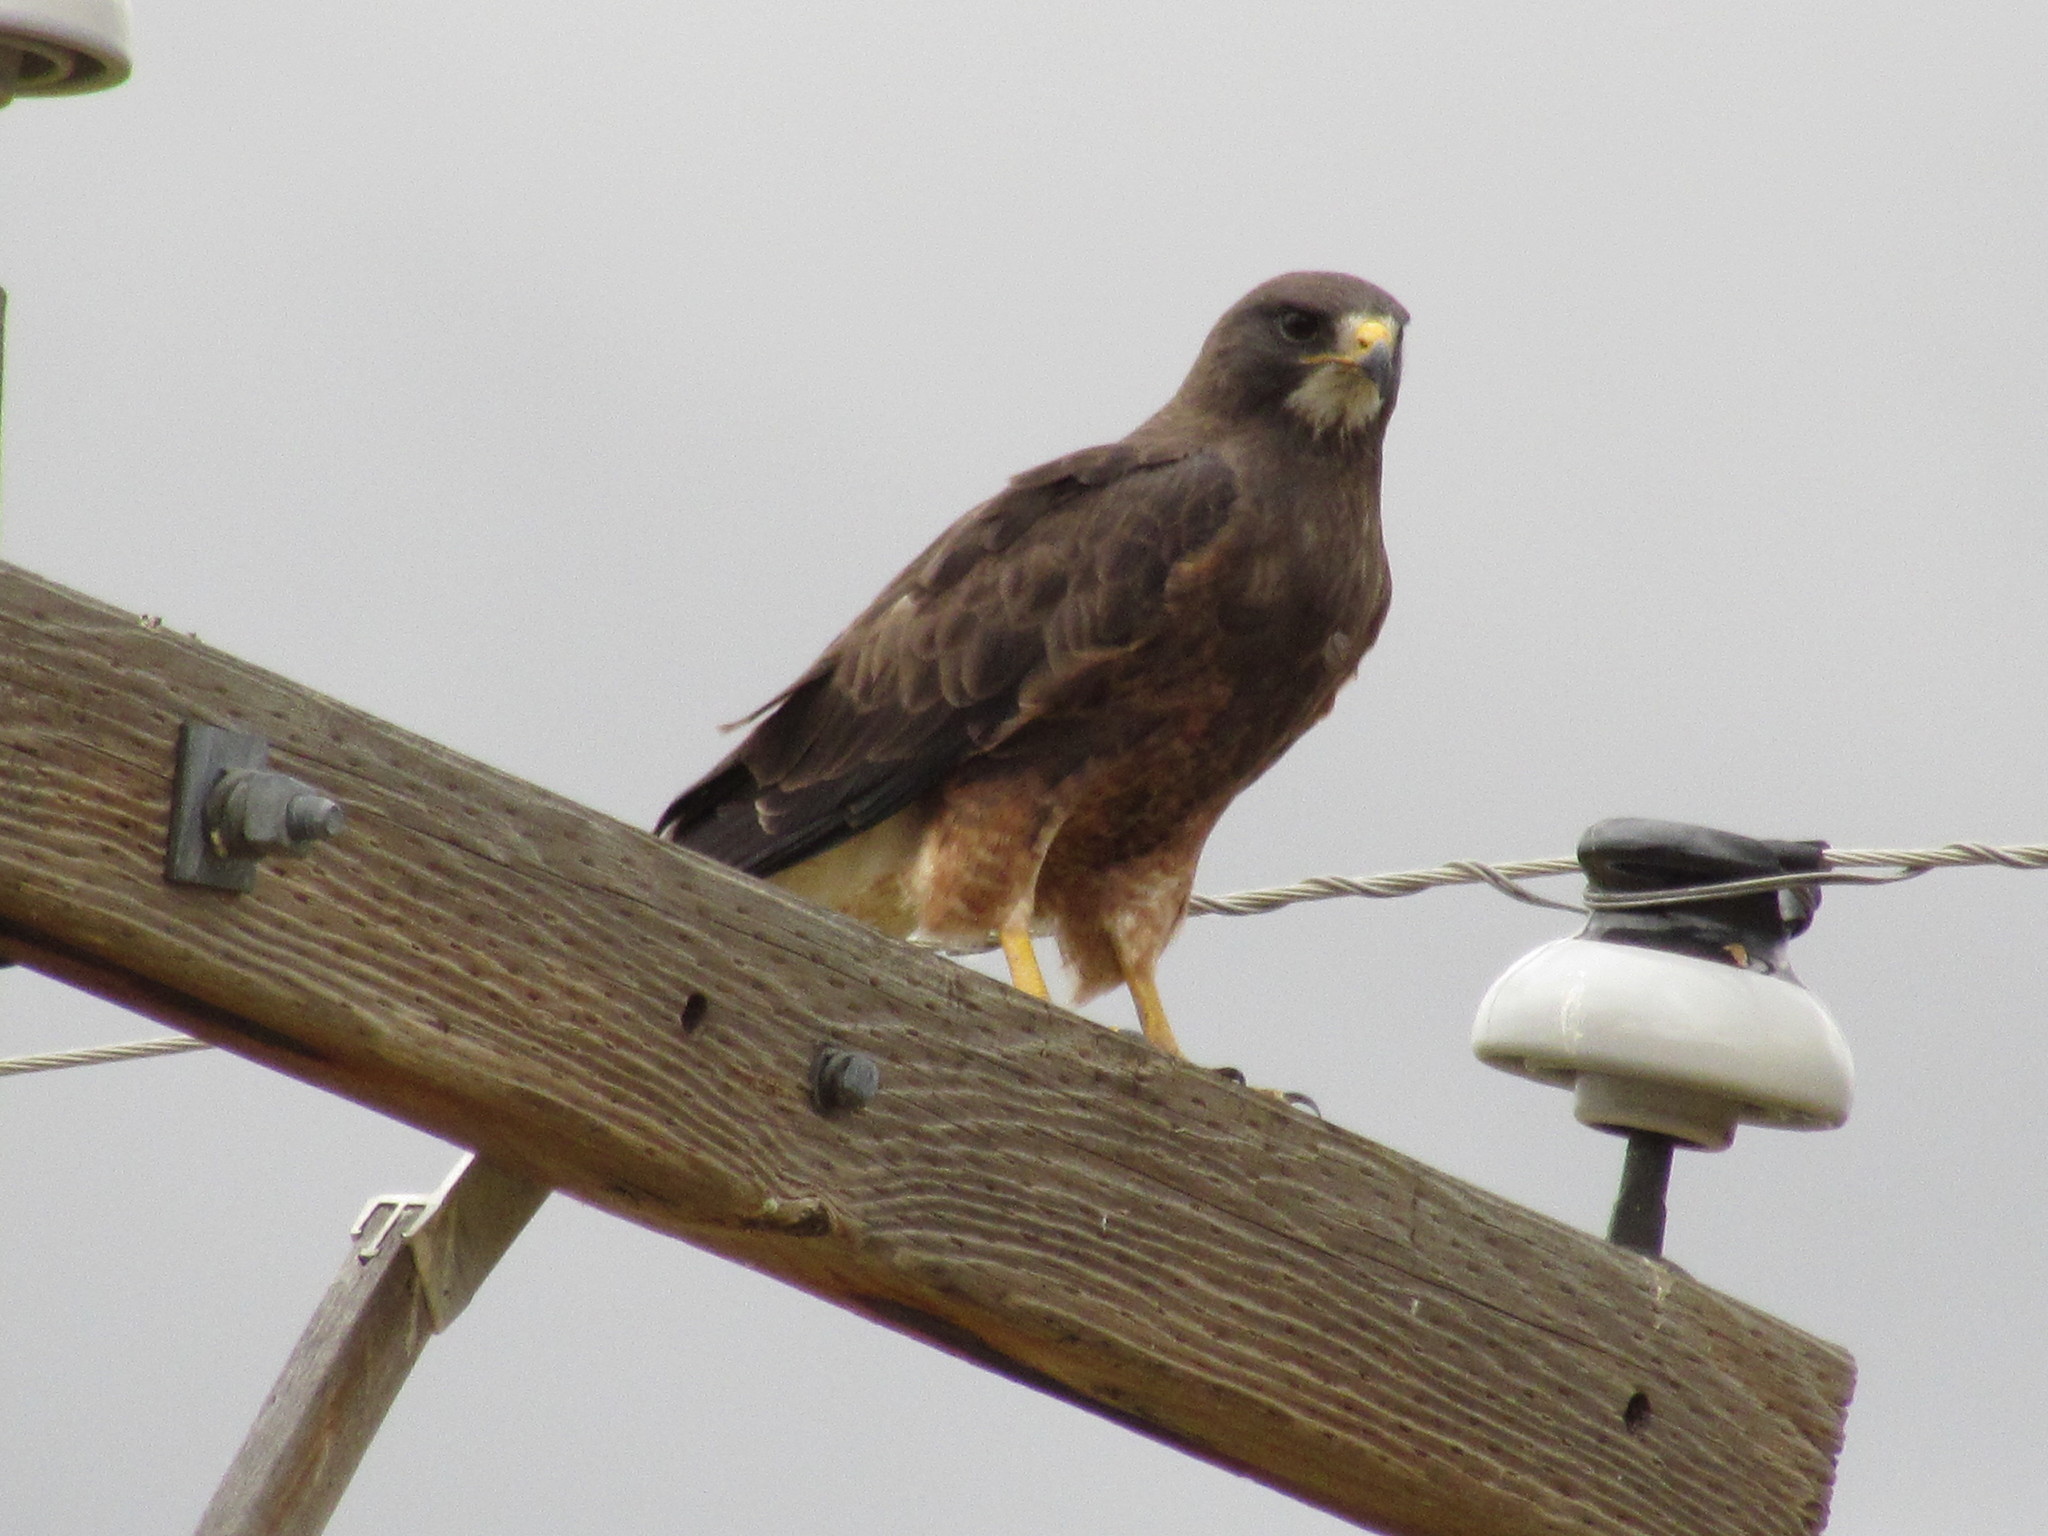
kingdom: Animalia
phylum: Chordata
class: Aves
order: Accipitriformes
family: Accipitridae
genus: Buteo
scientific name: Buteo swainsoni
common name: Swainson's hawk
